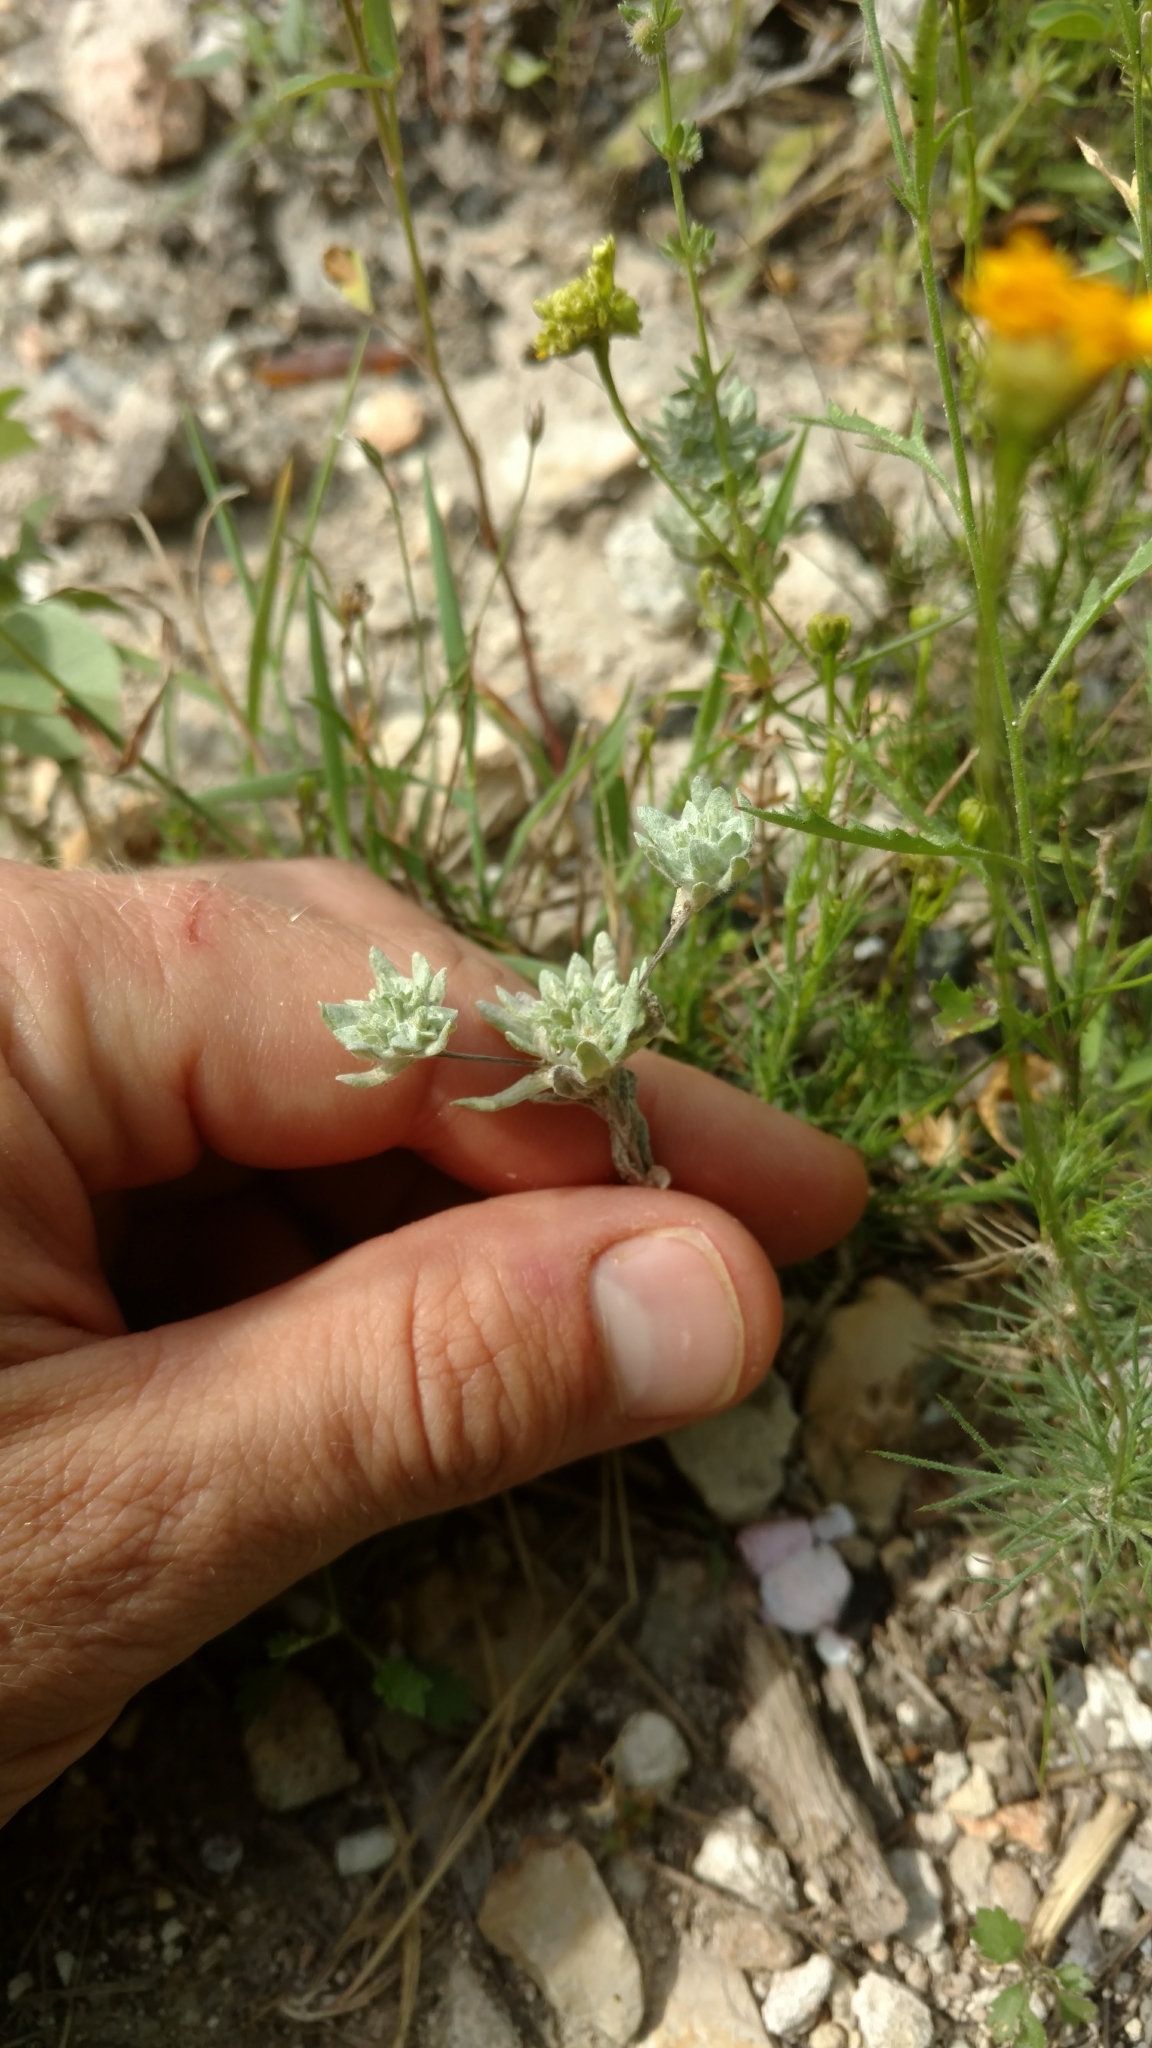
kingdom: Plantae
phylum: Tracheophyta
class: Magnoliopsida
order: Asterales
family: Asteraceae
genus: Diaperia
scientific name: Diaperia prolifera
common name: Big-head rabbit-tobacco
